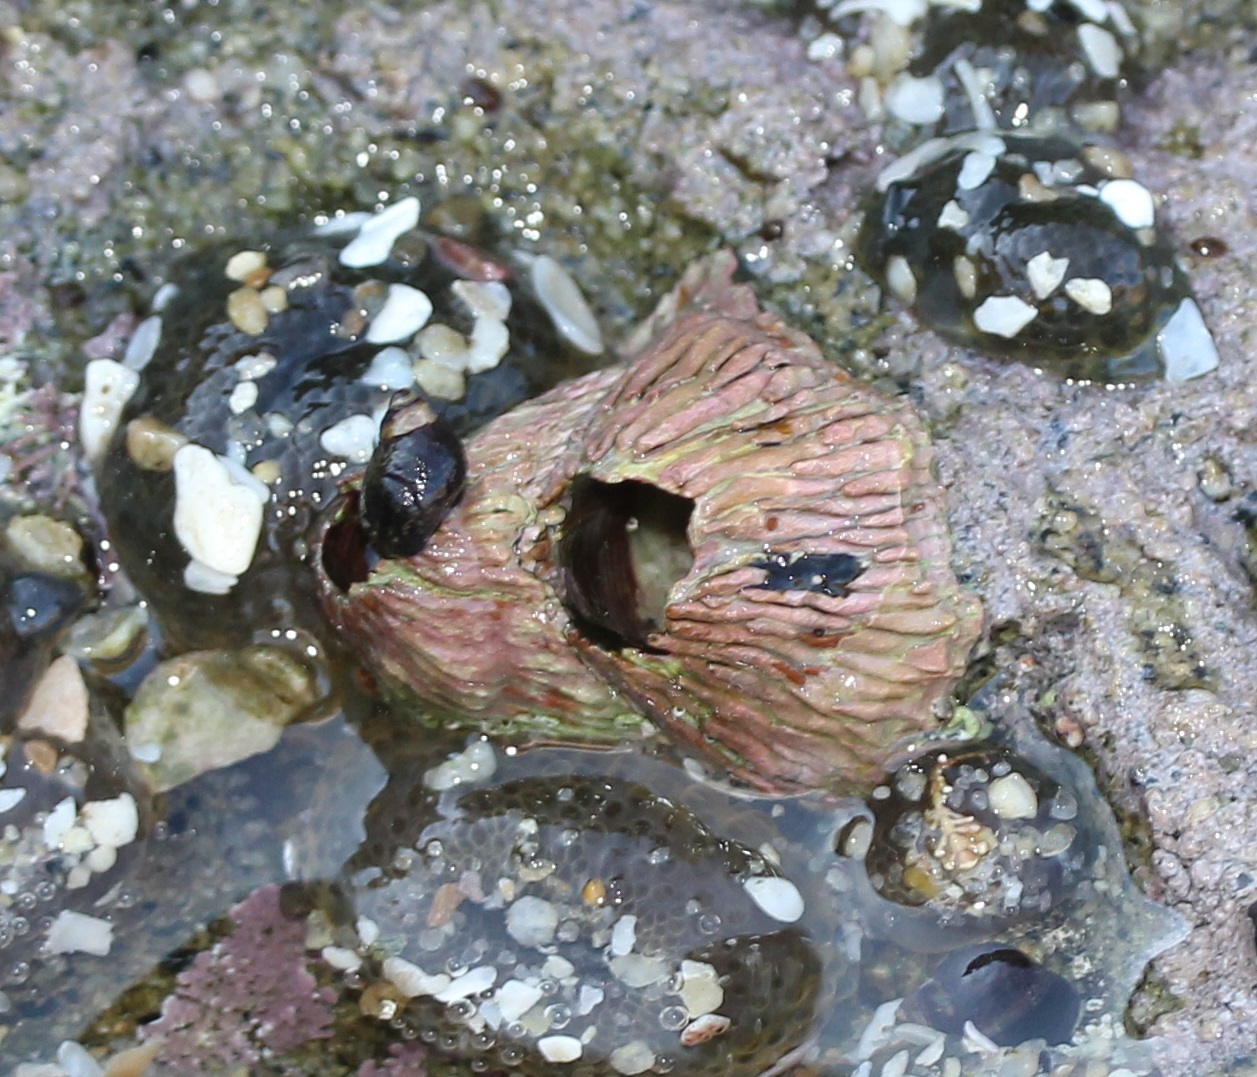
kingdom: Animalia
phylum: Arthropoda
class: Maxillopoda
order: Sessilia
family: Tetraclitidae
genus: Tetraclita
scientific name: Tetraclita rubescens
